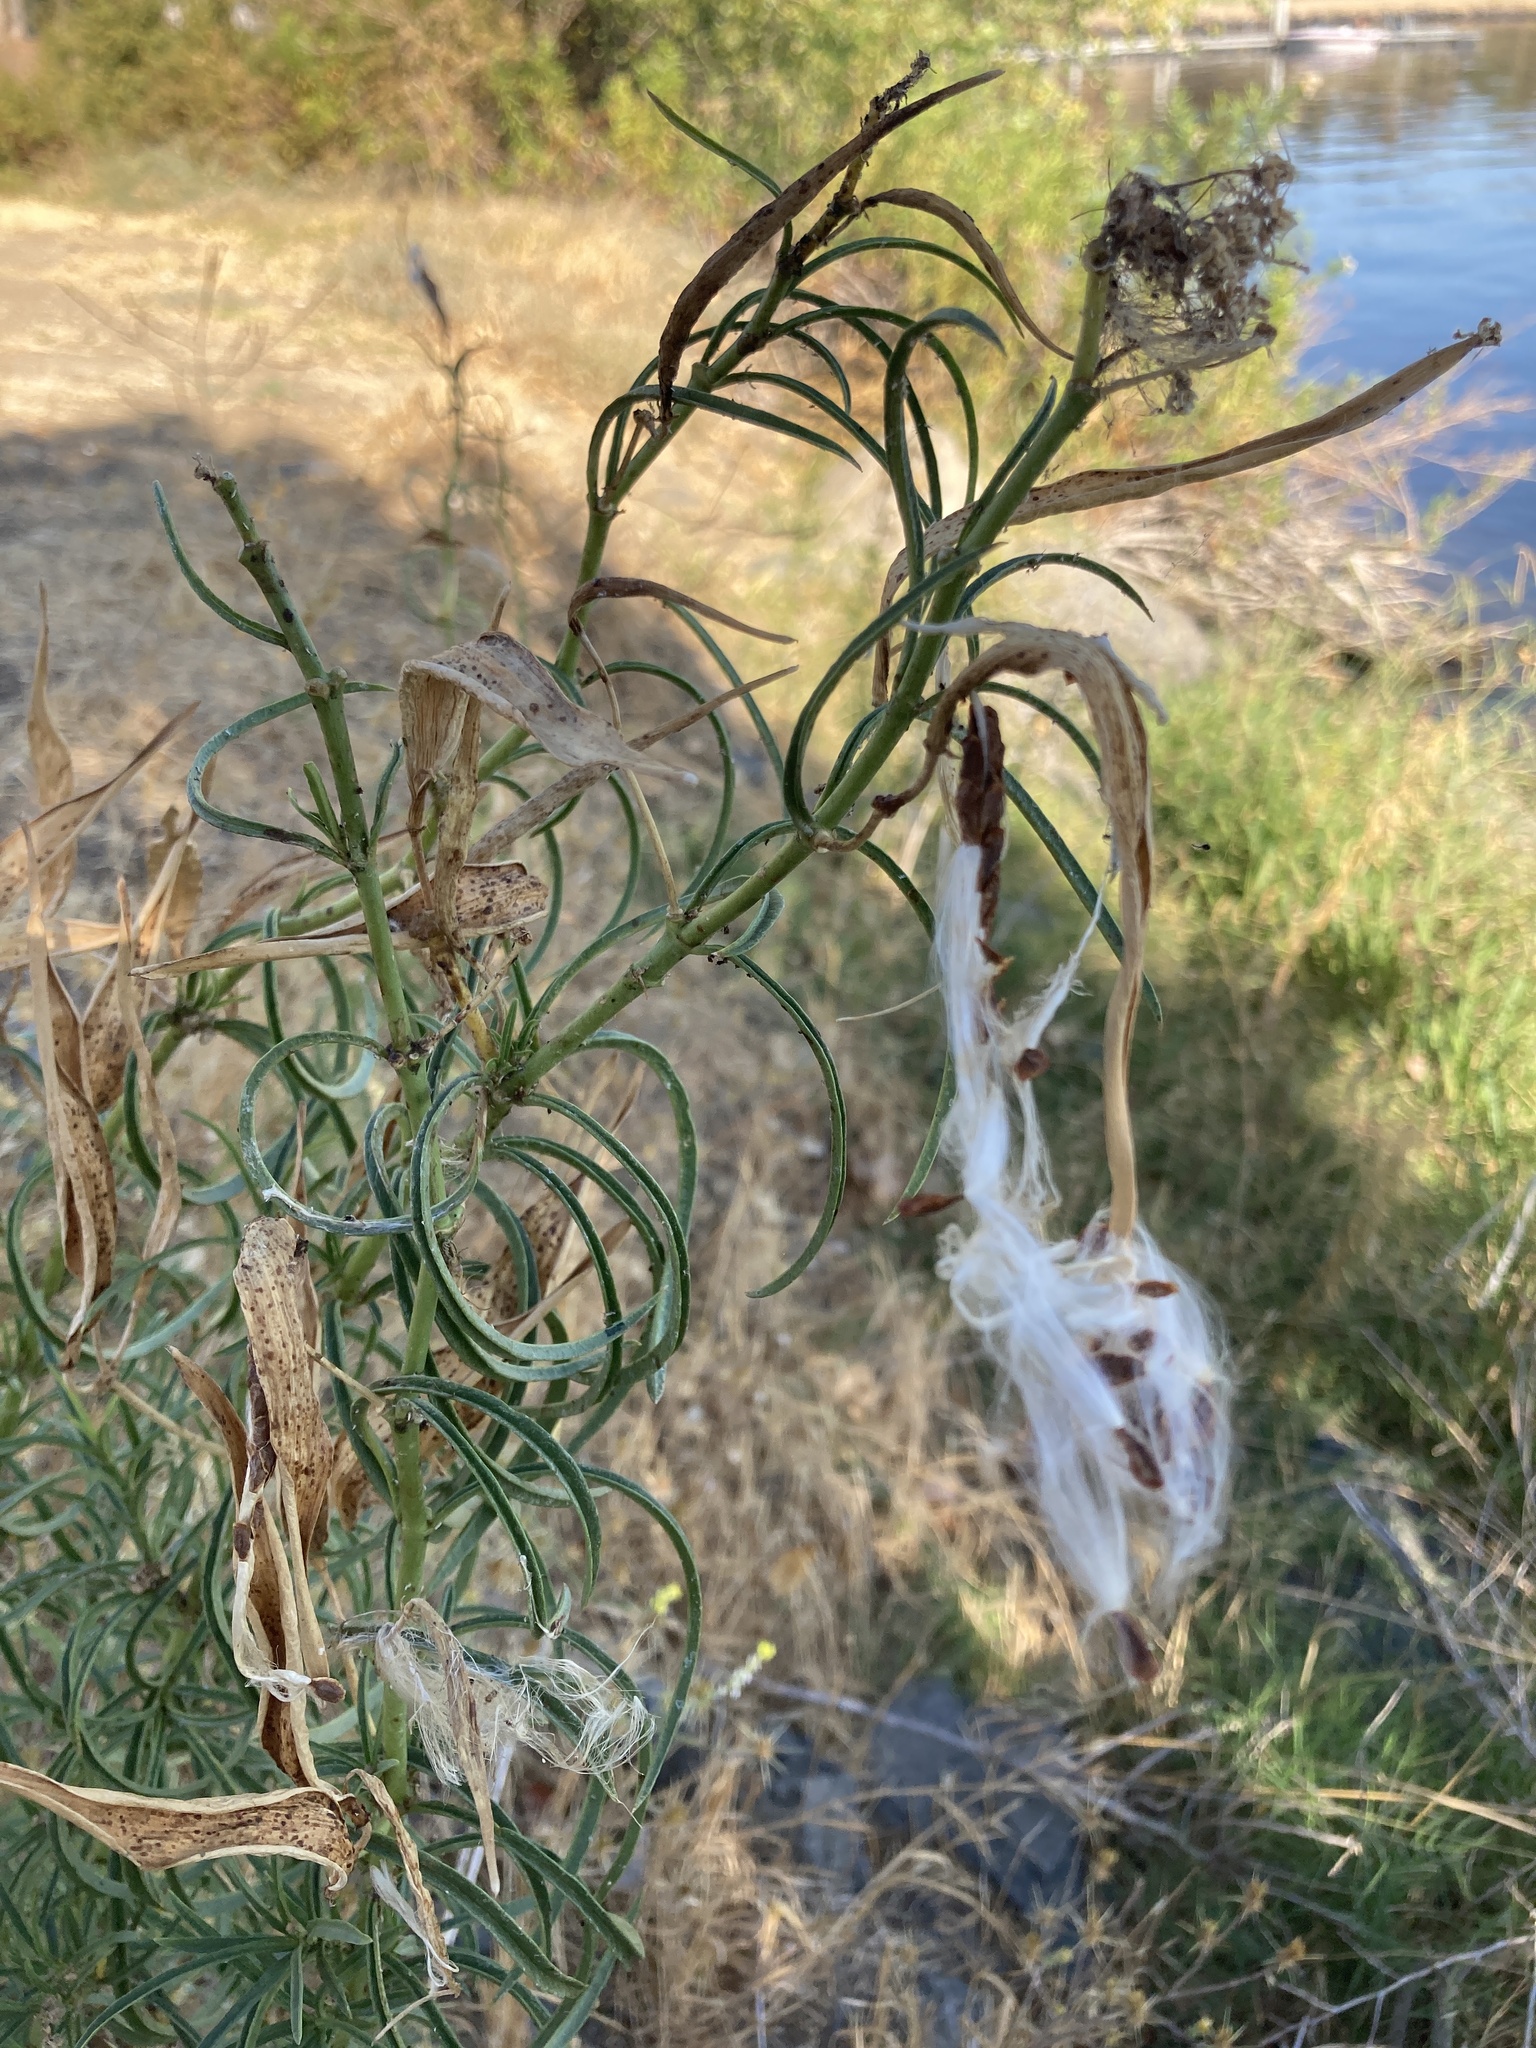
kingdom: Plantae
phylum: Tracheophyta
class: Magnoliopsida
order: Gentianales
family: Apocynaceae
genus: Asclepias
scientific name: Asclepias fascicularis
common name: Mexican milkweed
